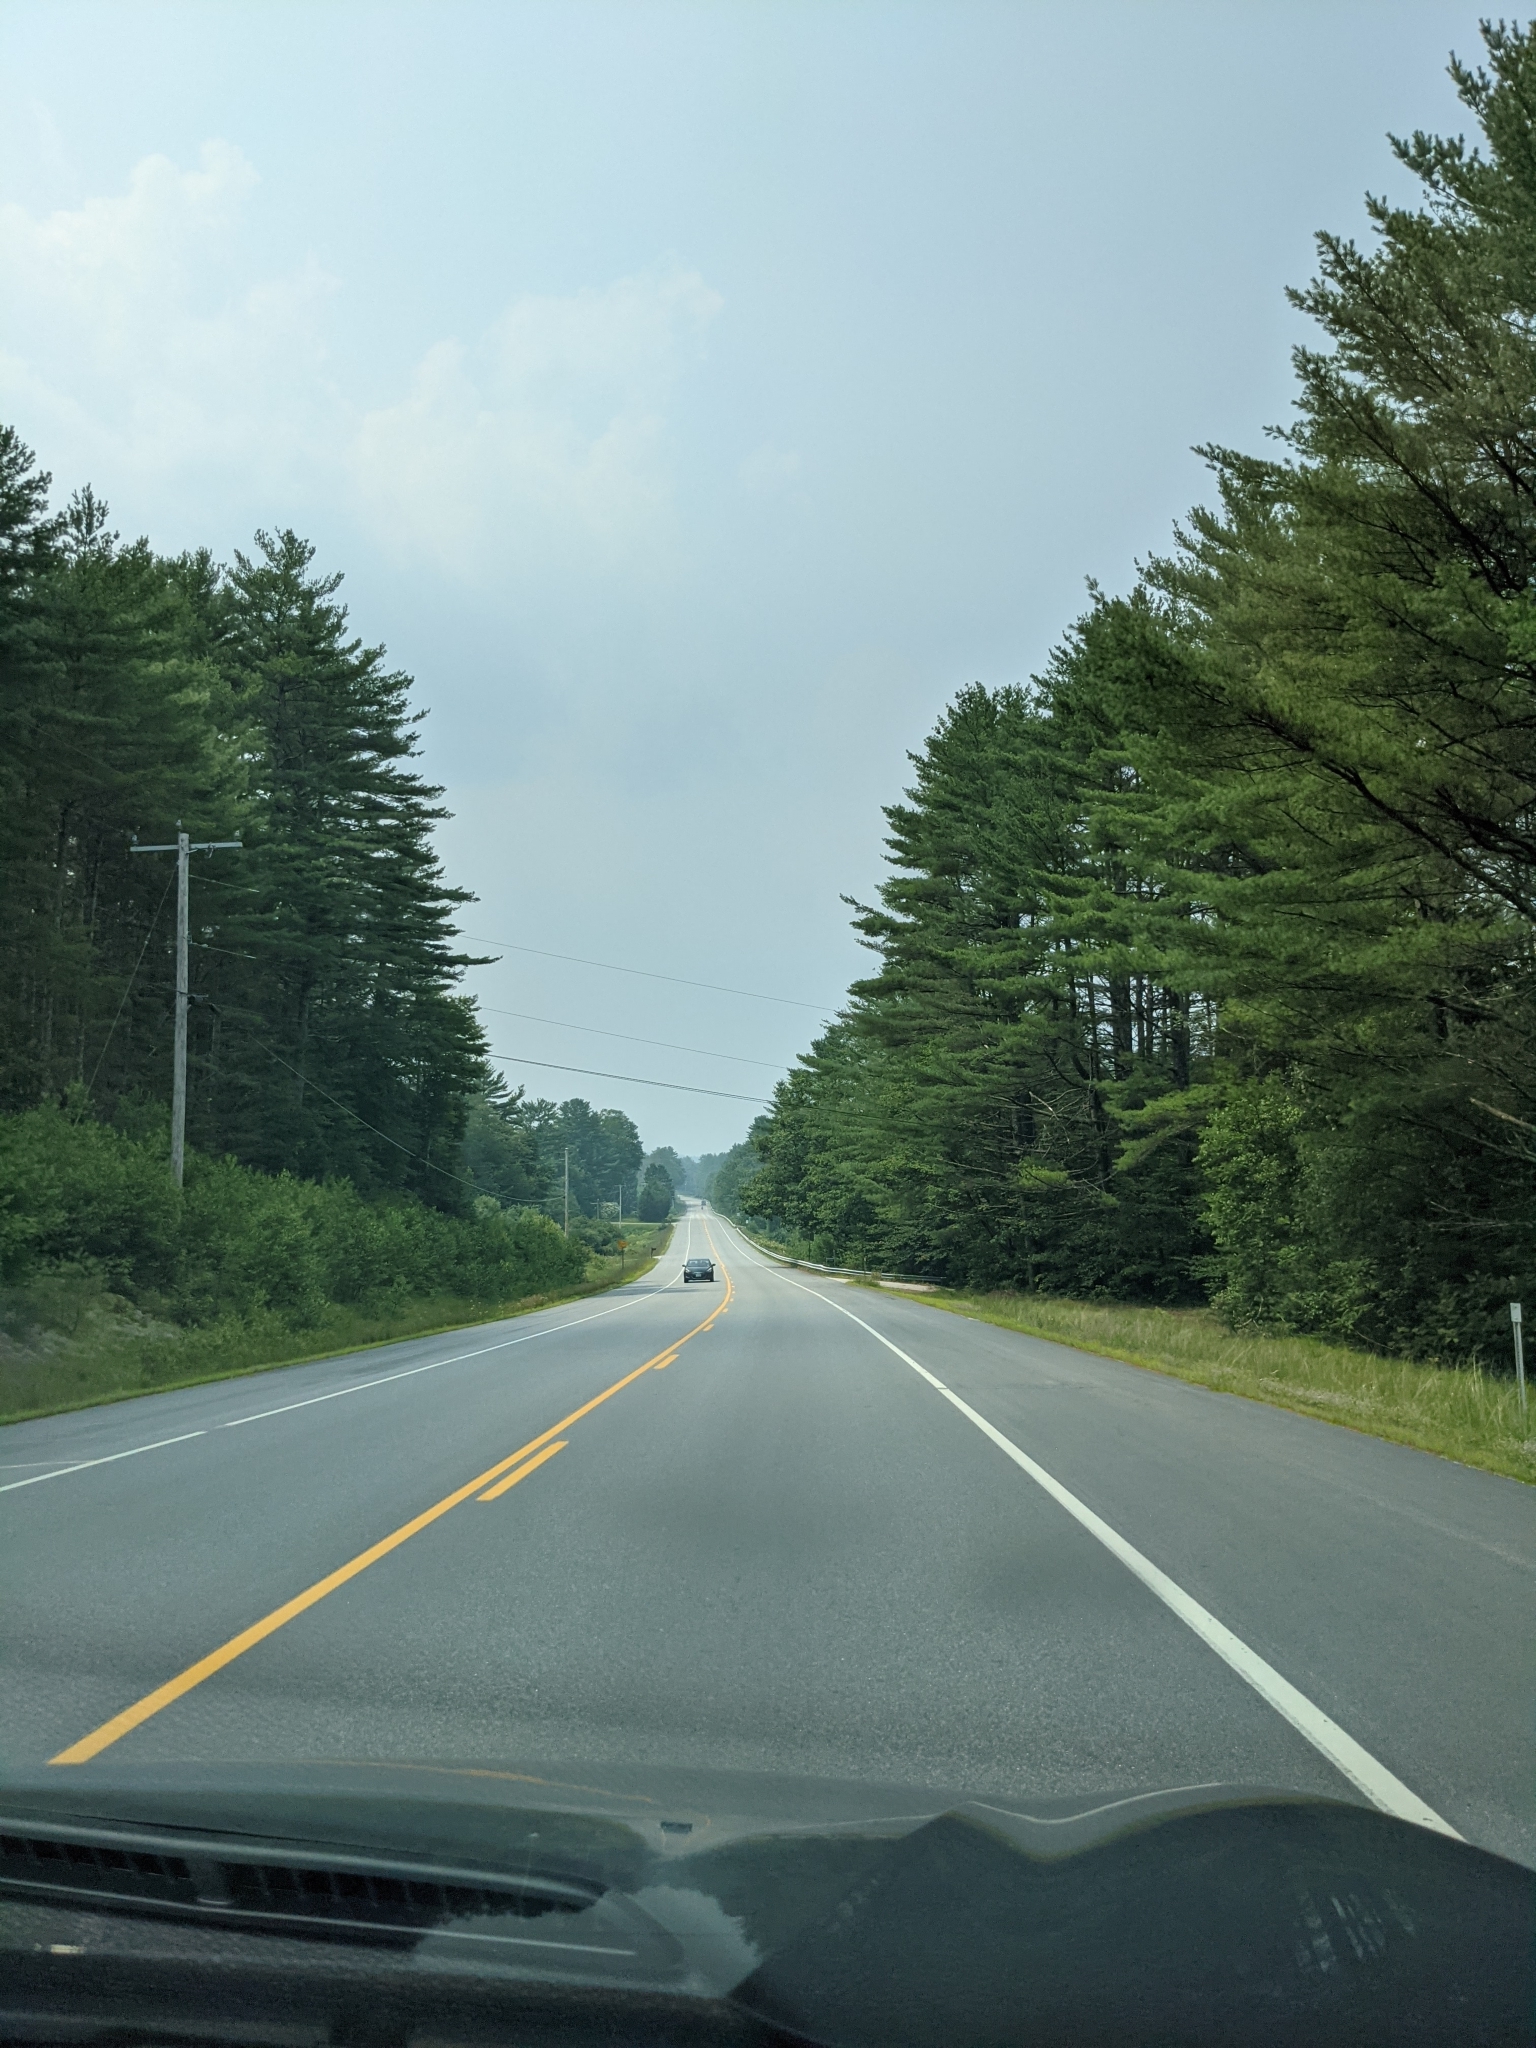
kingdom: Plantae
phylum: Tracheophyta
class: Pinopsida
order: Pinales
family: Pinaceae
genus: Pinus
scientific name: Pinus strobus
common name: Weymouth pine
